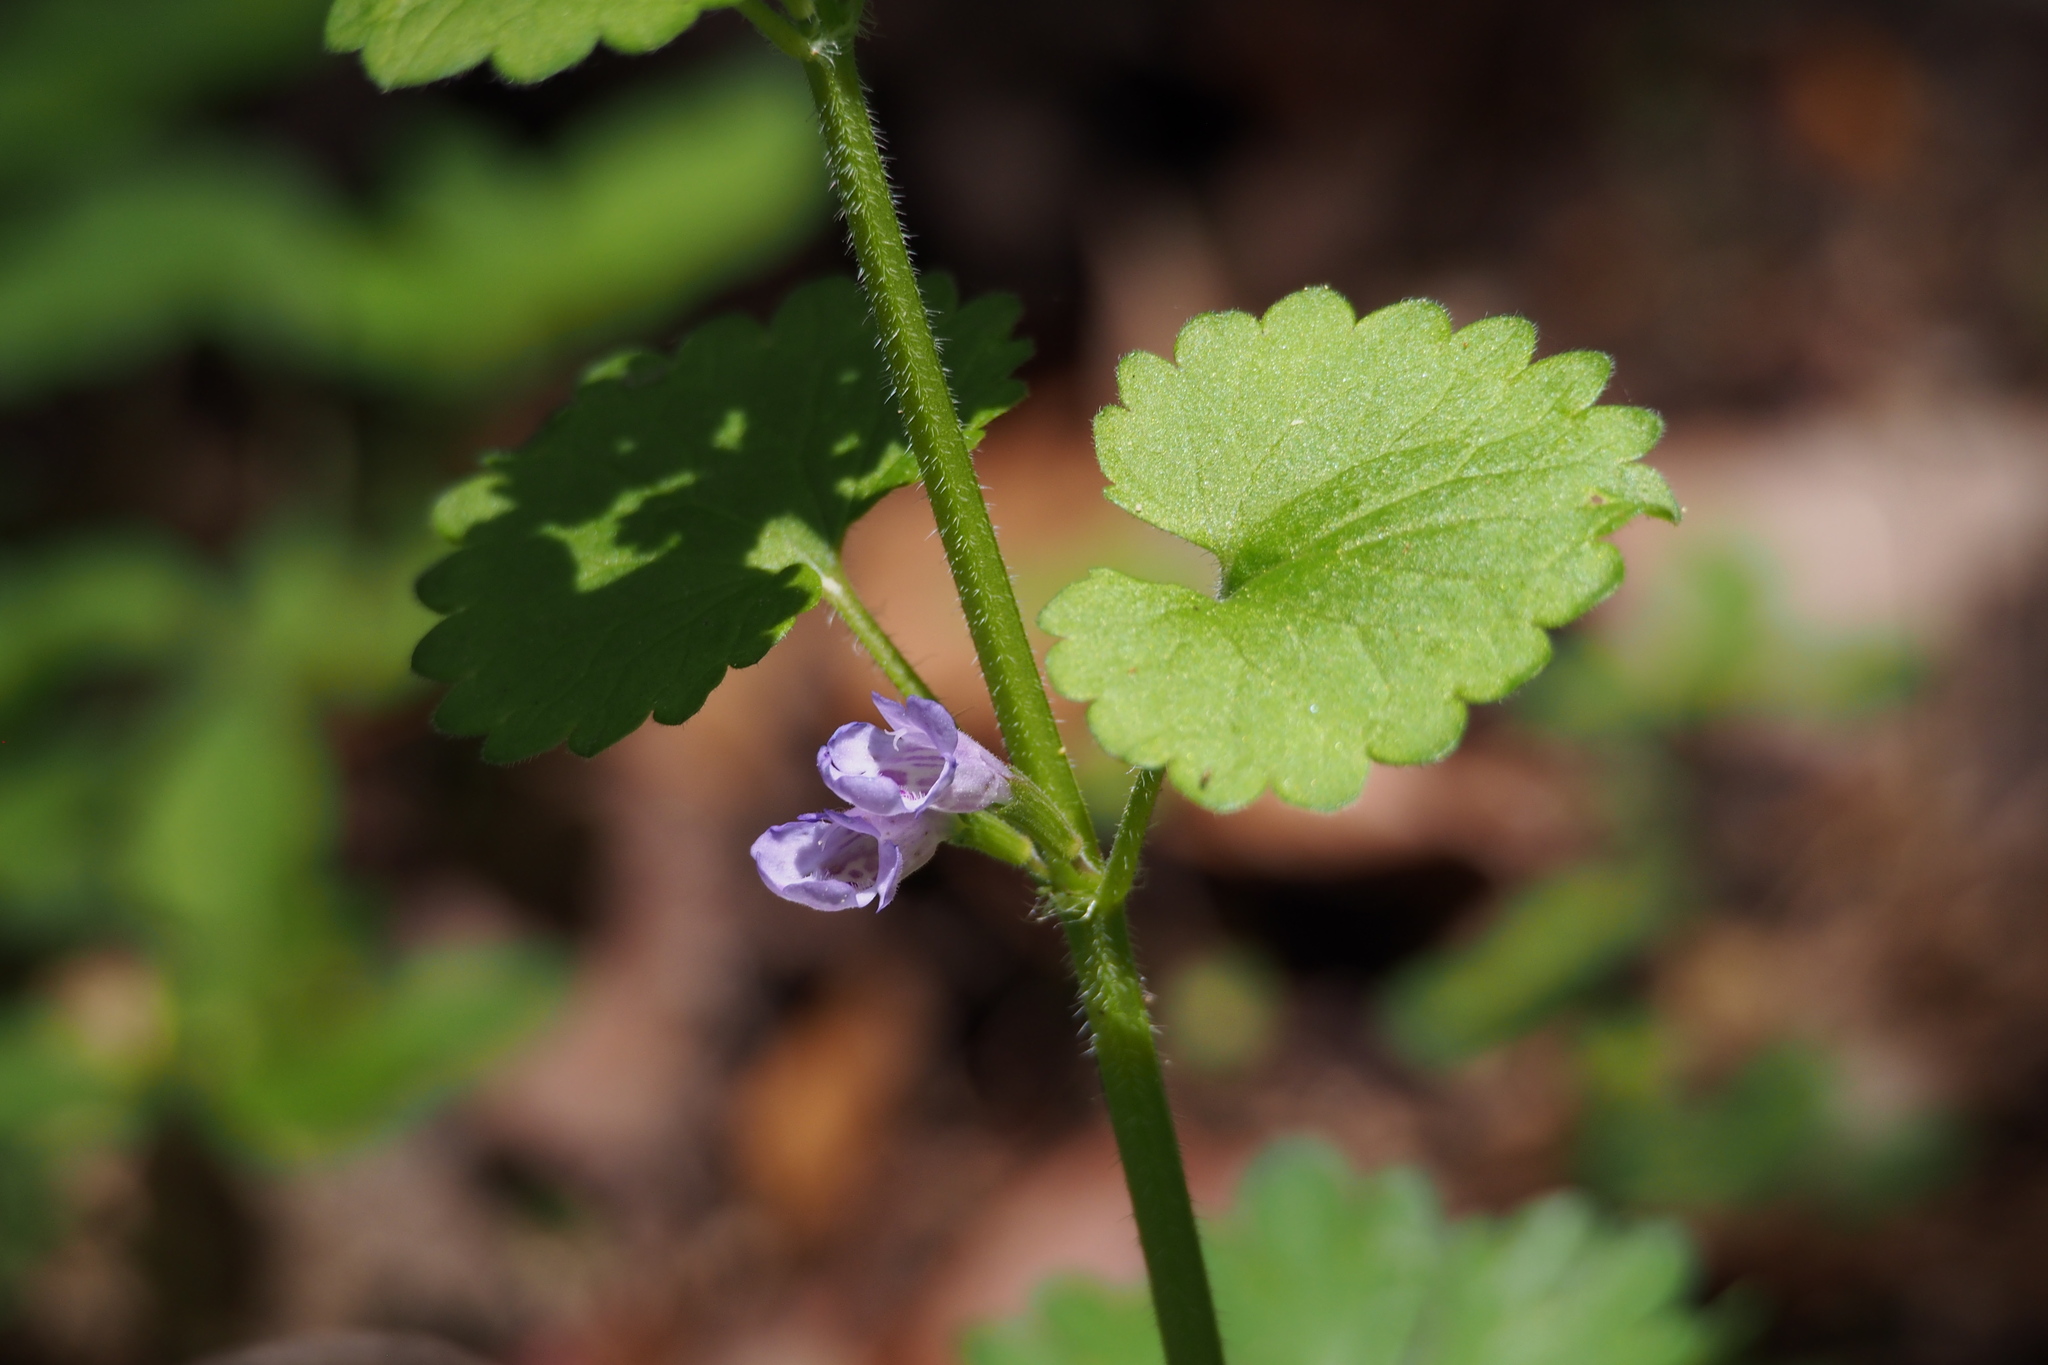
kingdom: Plantae
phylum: Tracheophyta
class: Magnoliopsida
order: Lamiales
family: Lamiaceae
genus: Glechoma
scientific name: Glechoma grandis
